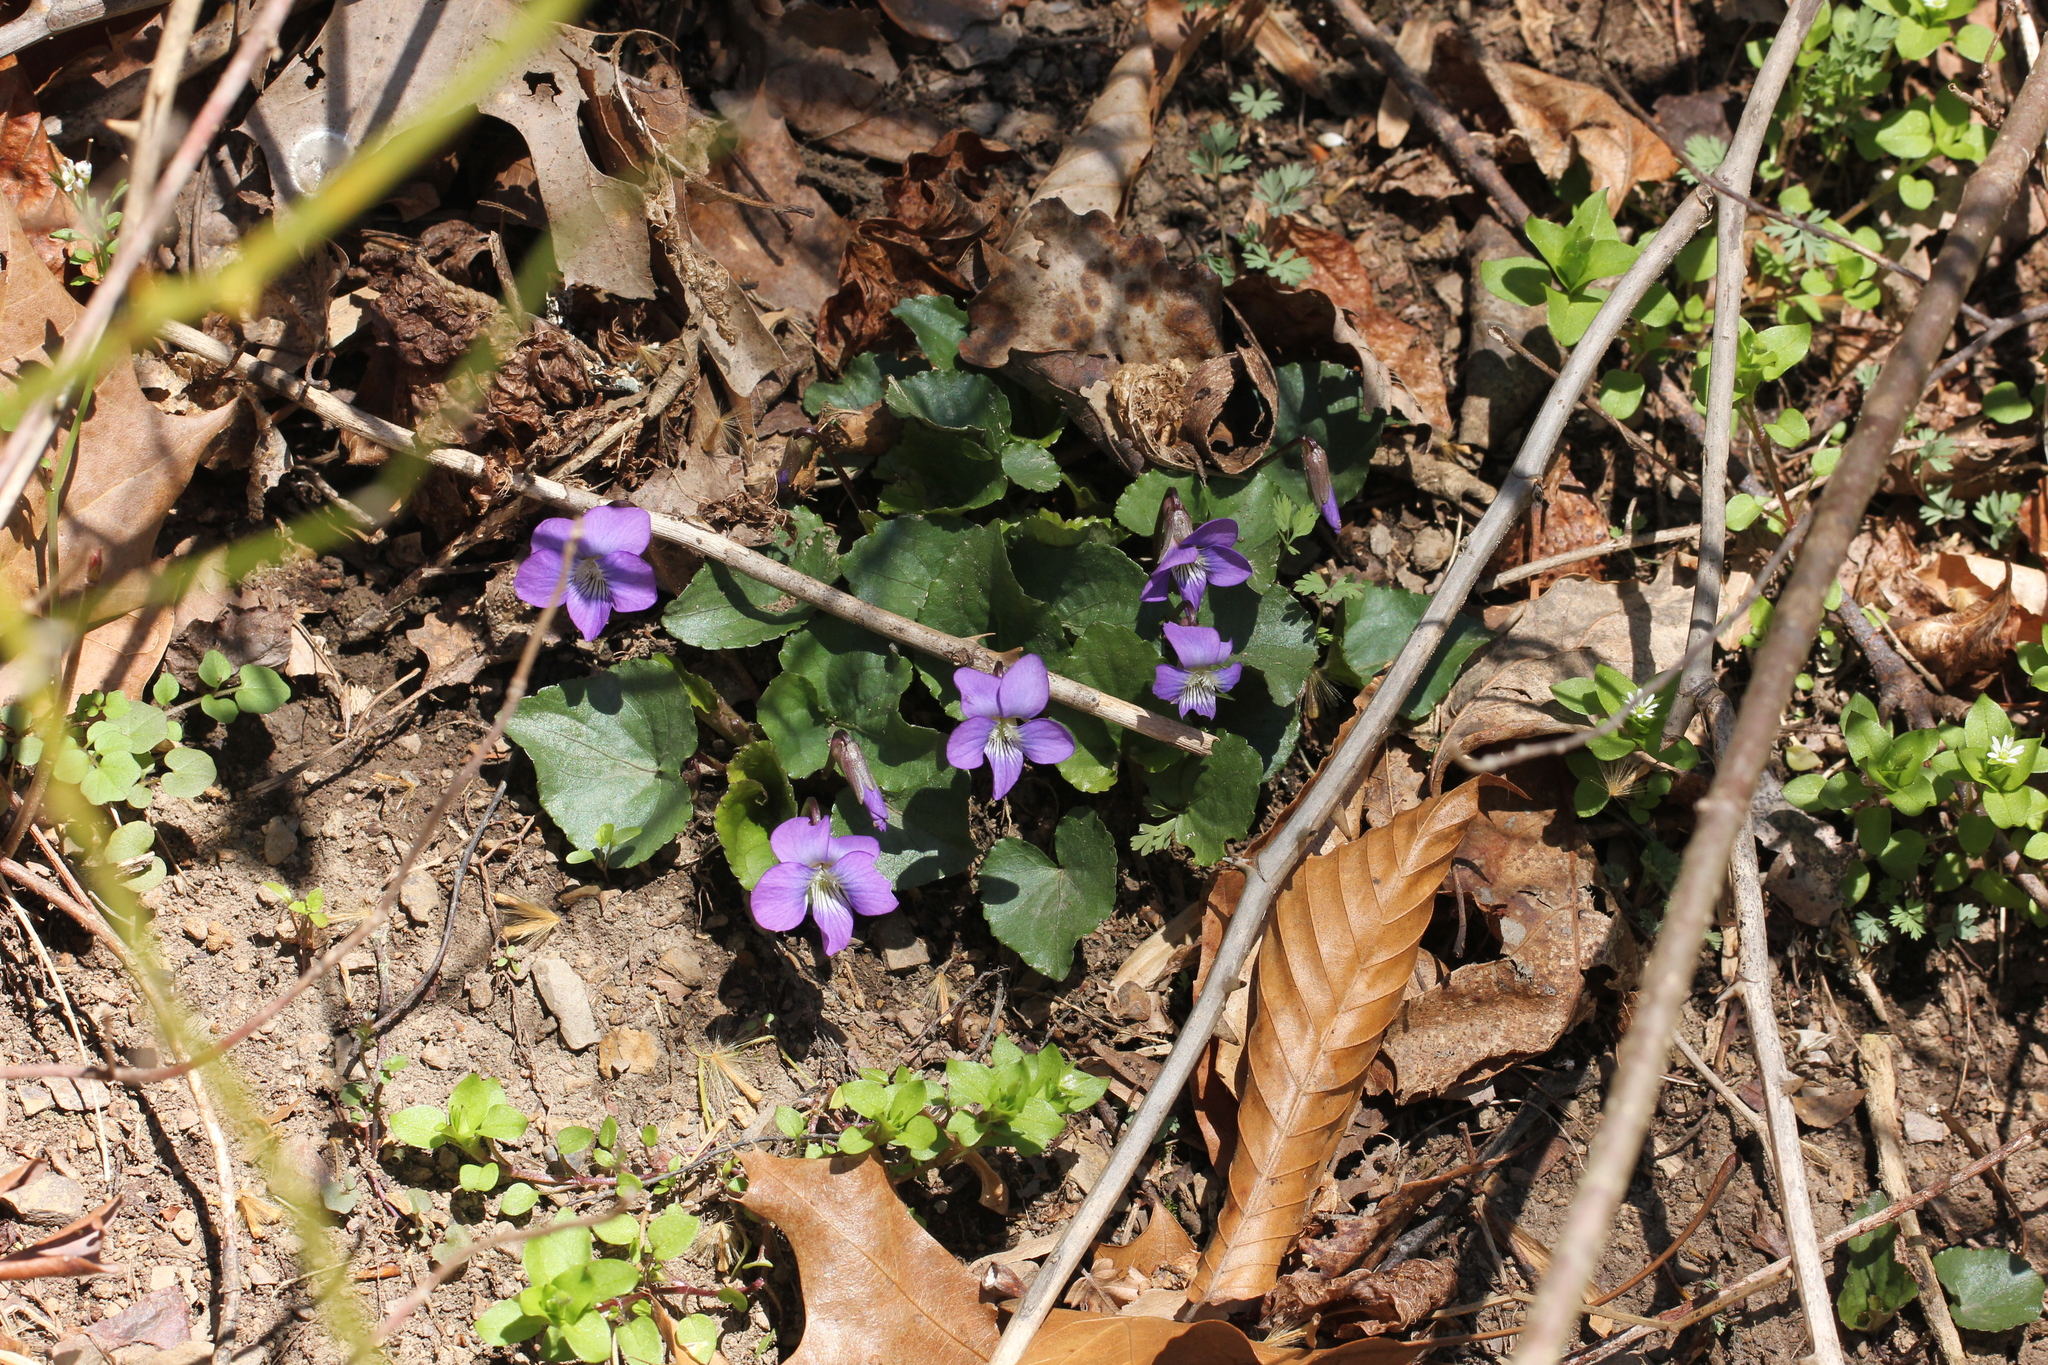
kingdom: Plantae
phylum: Tracheophyta
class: Magnoliopsida
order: Malpighiales
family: Violaceae
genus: Viola
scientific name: Viola sororia
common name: Dooryard violet
